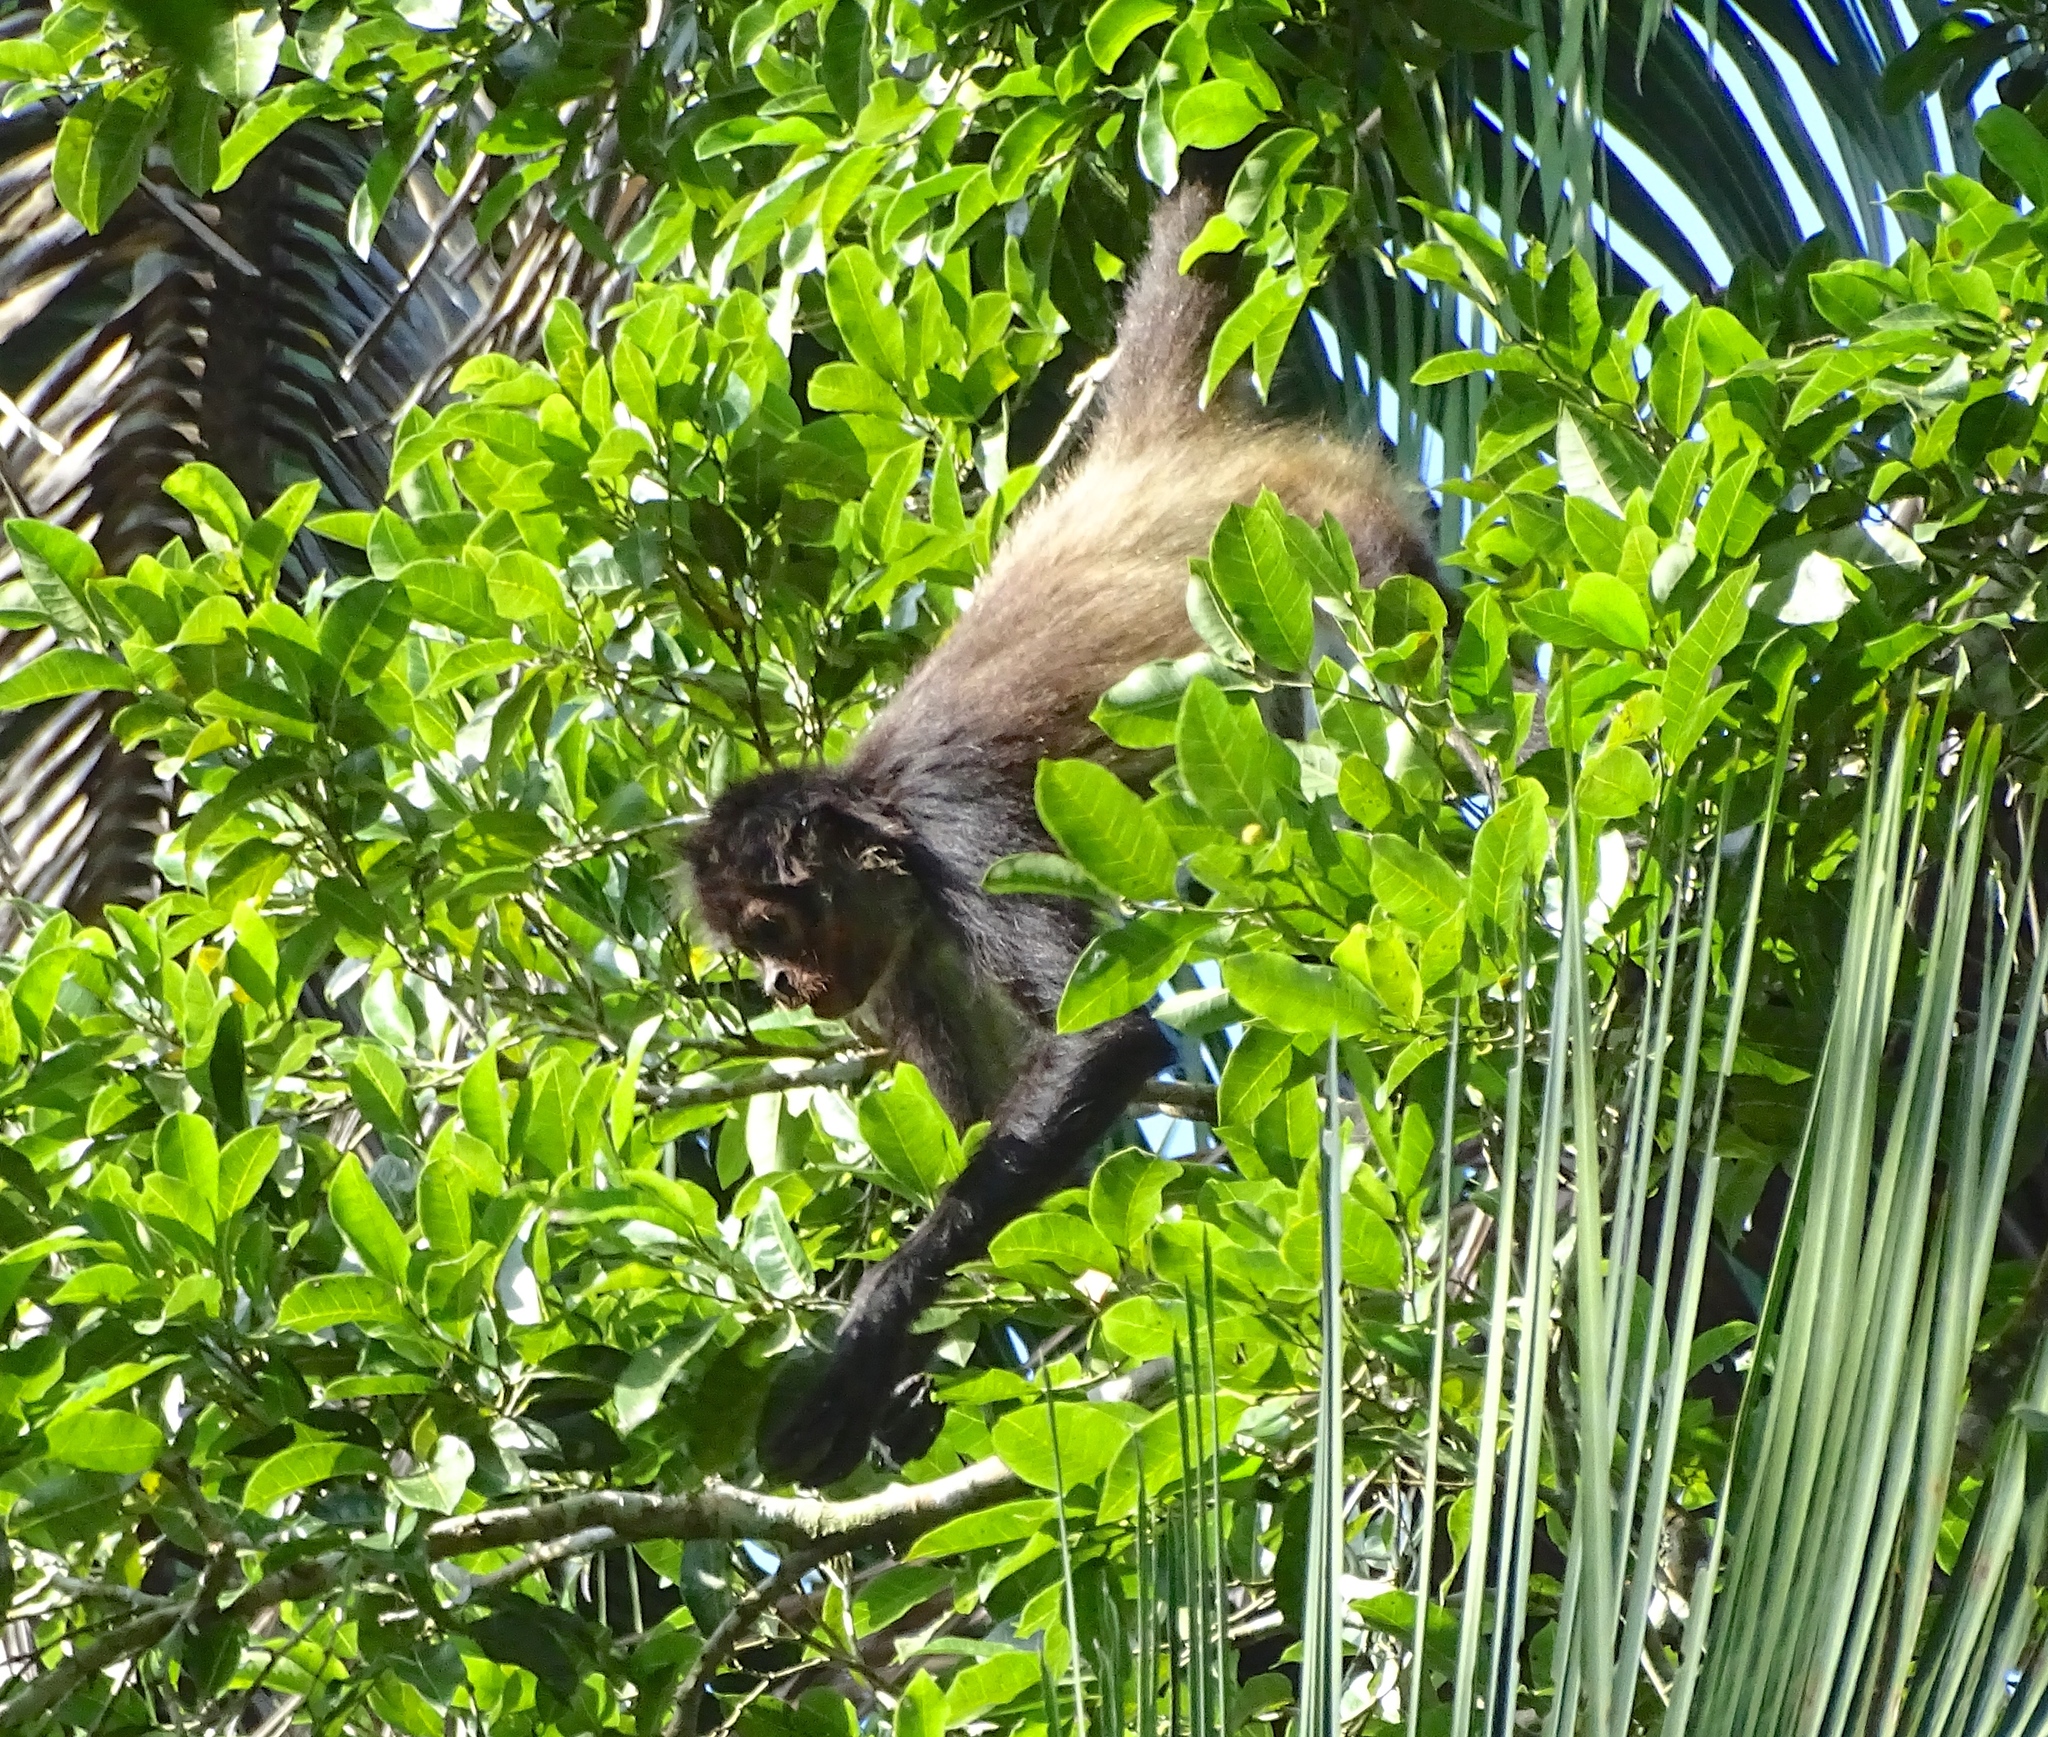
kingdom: Animalia
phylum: Chordata
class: Mammalia
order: Primates
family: Atelidae
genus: Ateles
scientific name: Ateles geoffroyi
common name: Black-handed spider monkey
